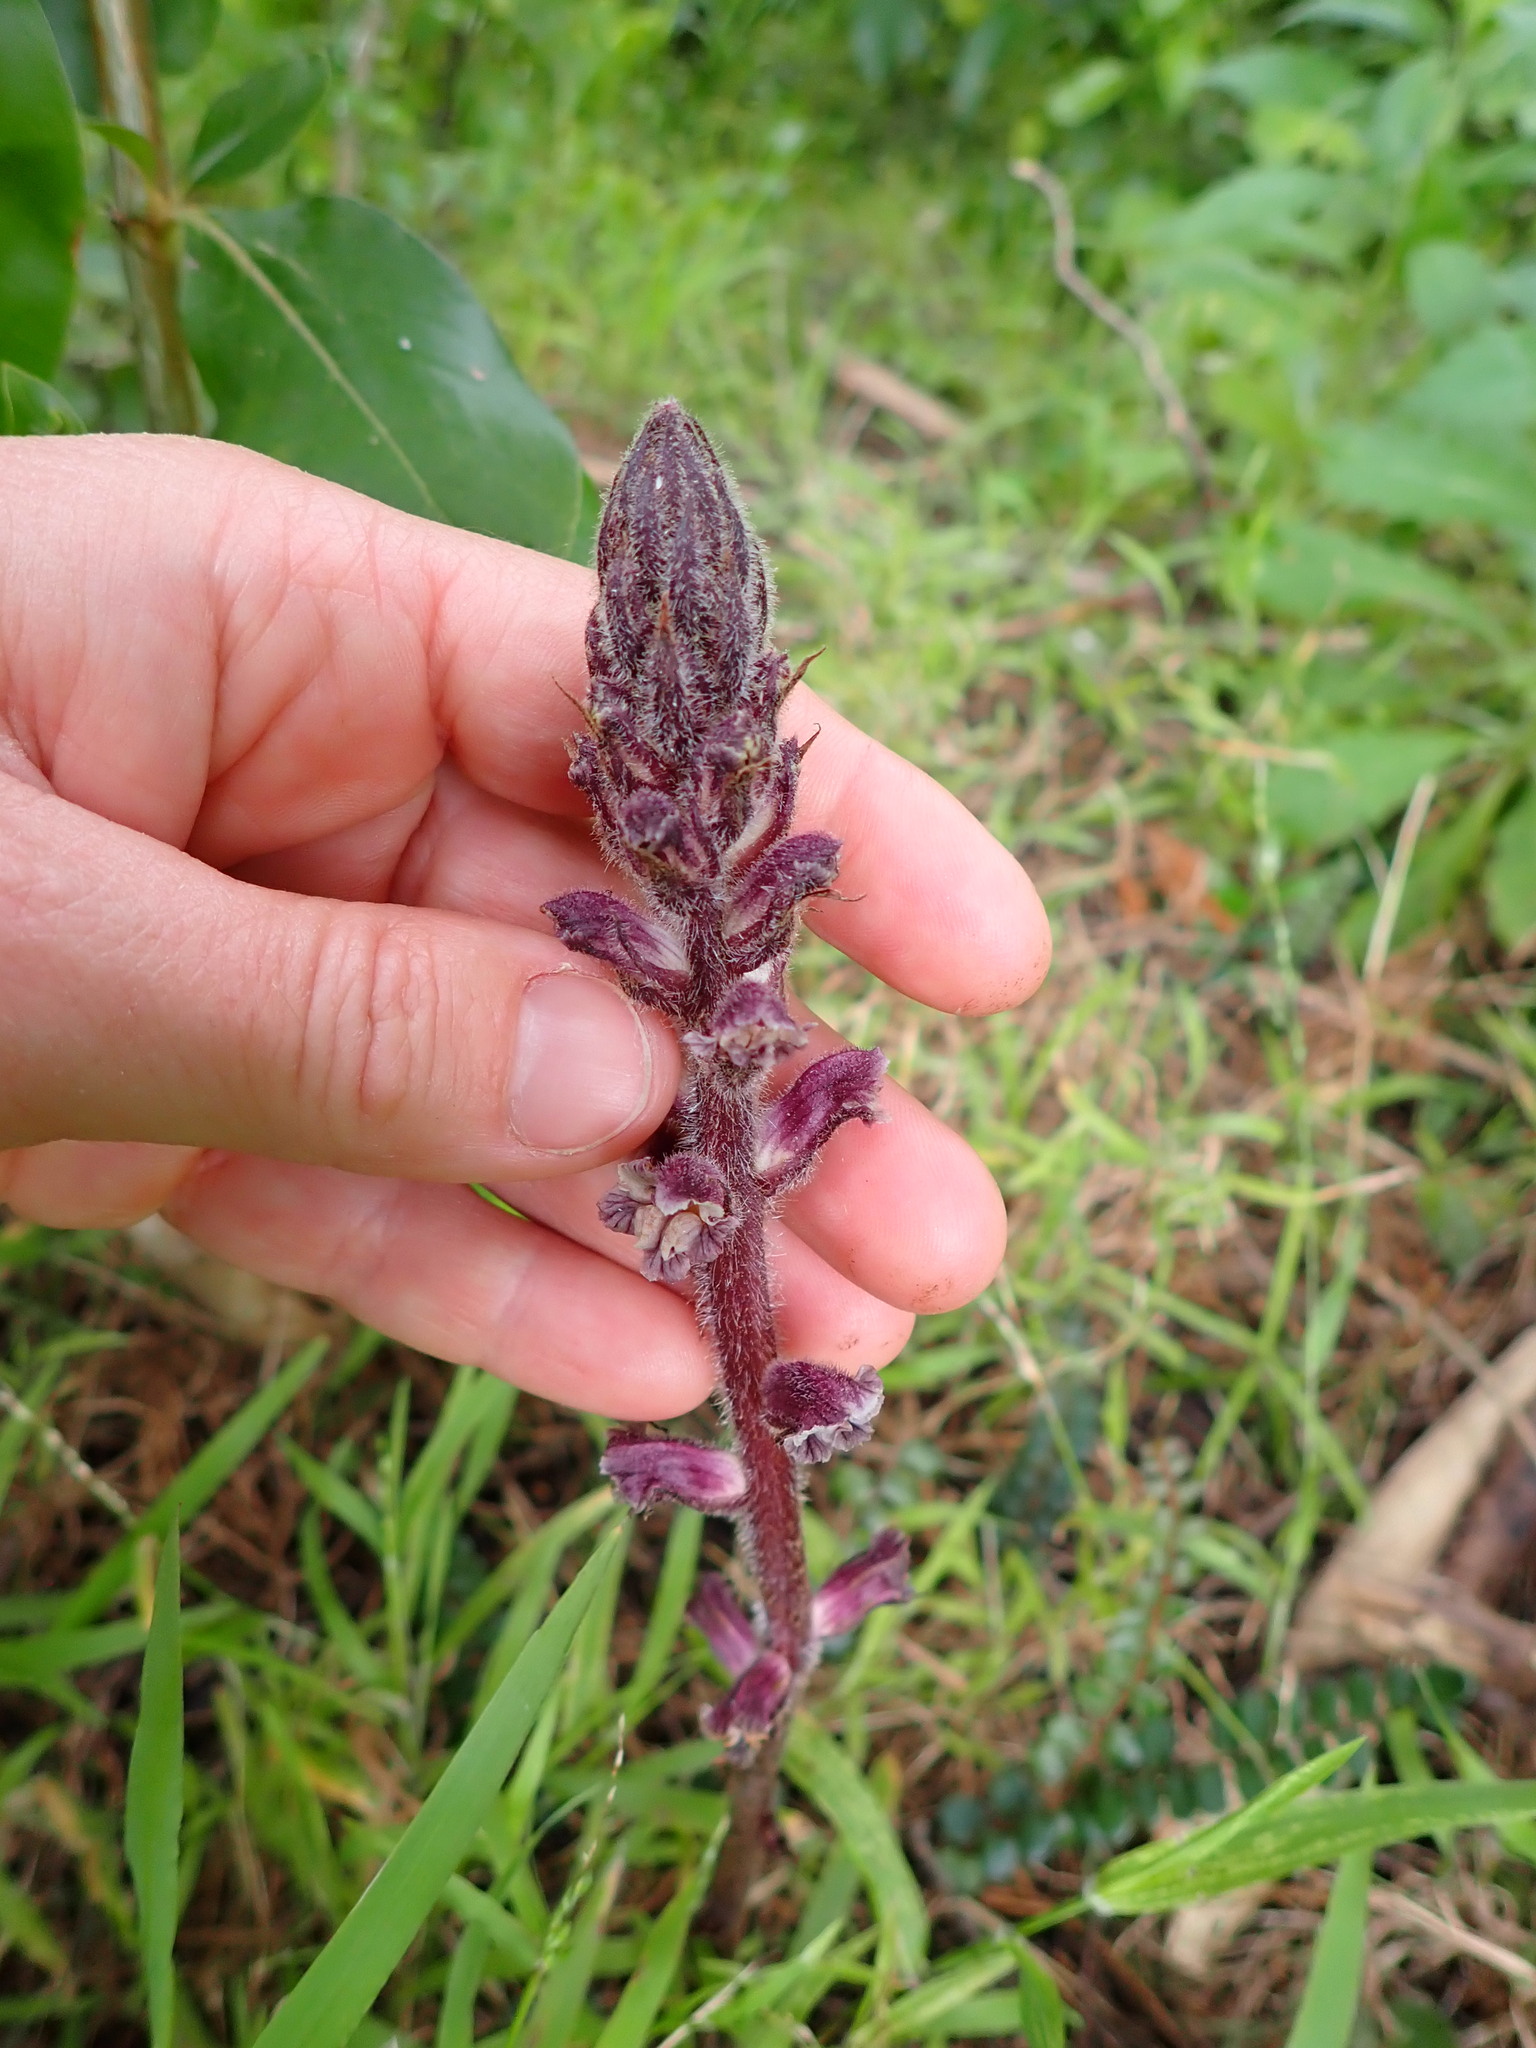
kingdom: Plantae
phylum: Tracheophyta
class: Magnoliopsida
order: Lamiales
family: Orobanchaceae
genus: Orobanche
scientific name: Orobanche minor
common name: Common broomrape
